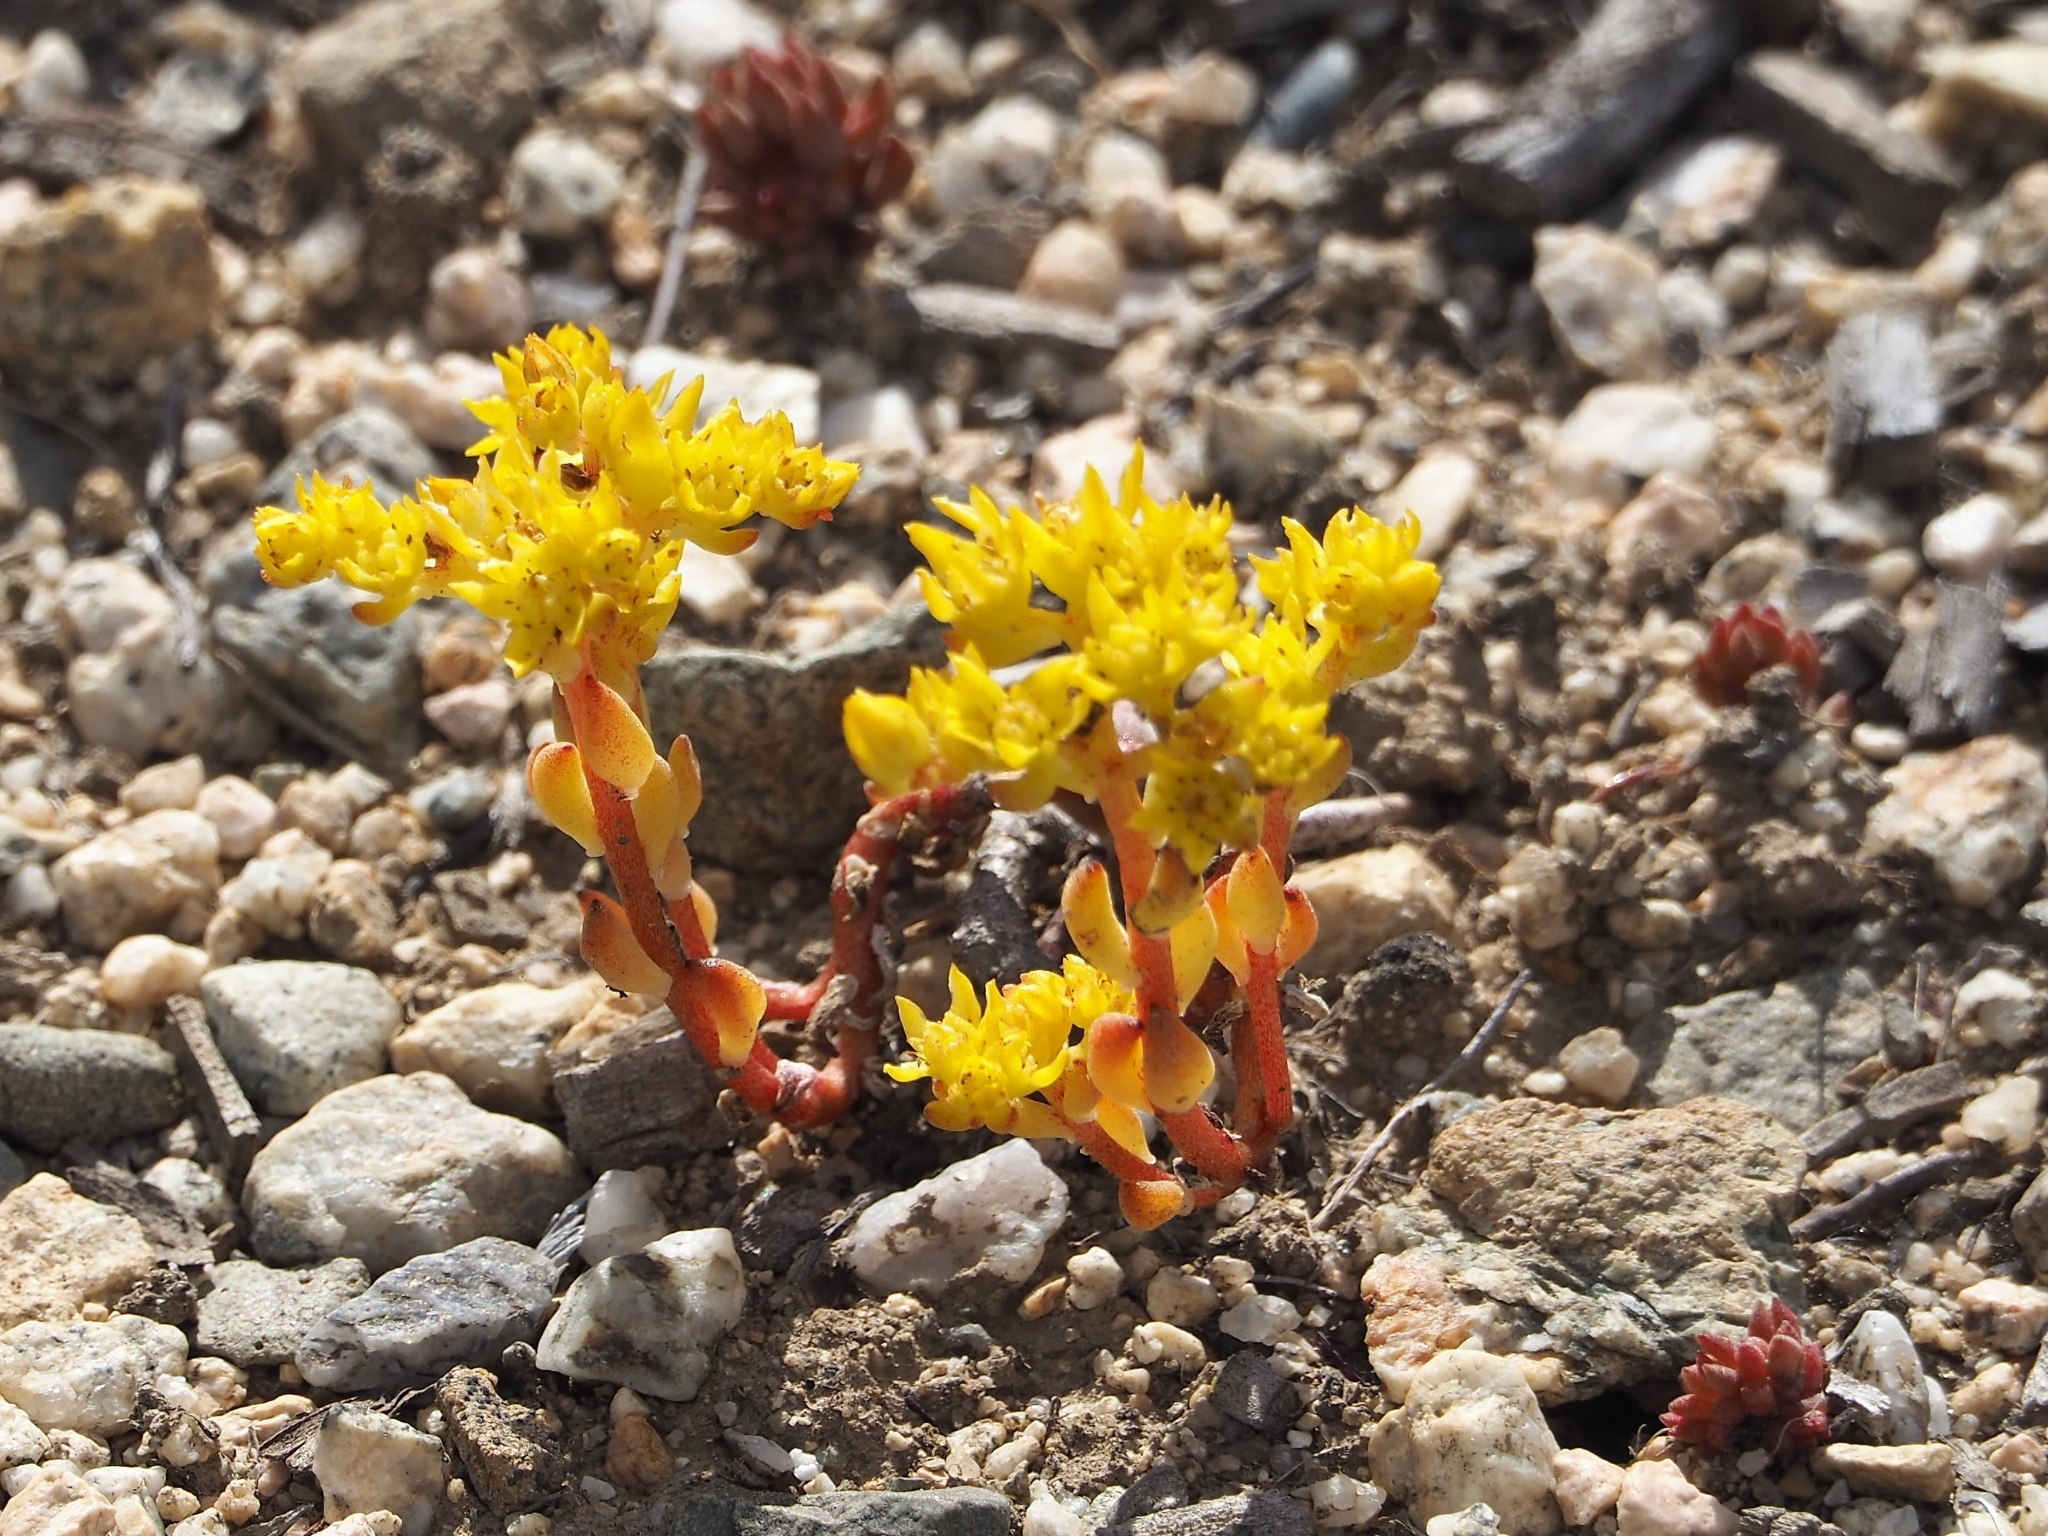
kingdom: Plantae
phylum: Tracheophyta
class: Magnoliopsida
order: Saxifragales
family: Crassulaceae
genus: Sedum
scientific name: Sedum lanceolatum
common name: Common stonecrop
